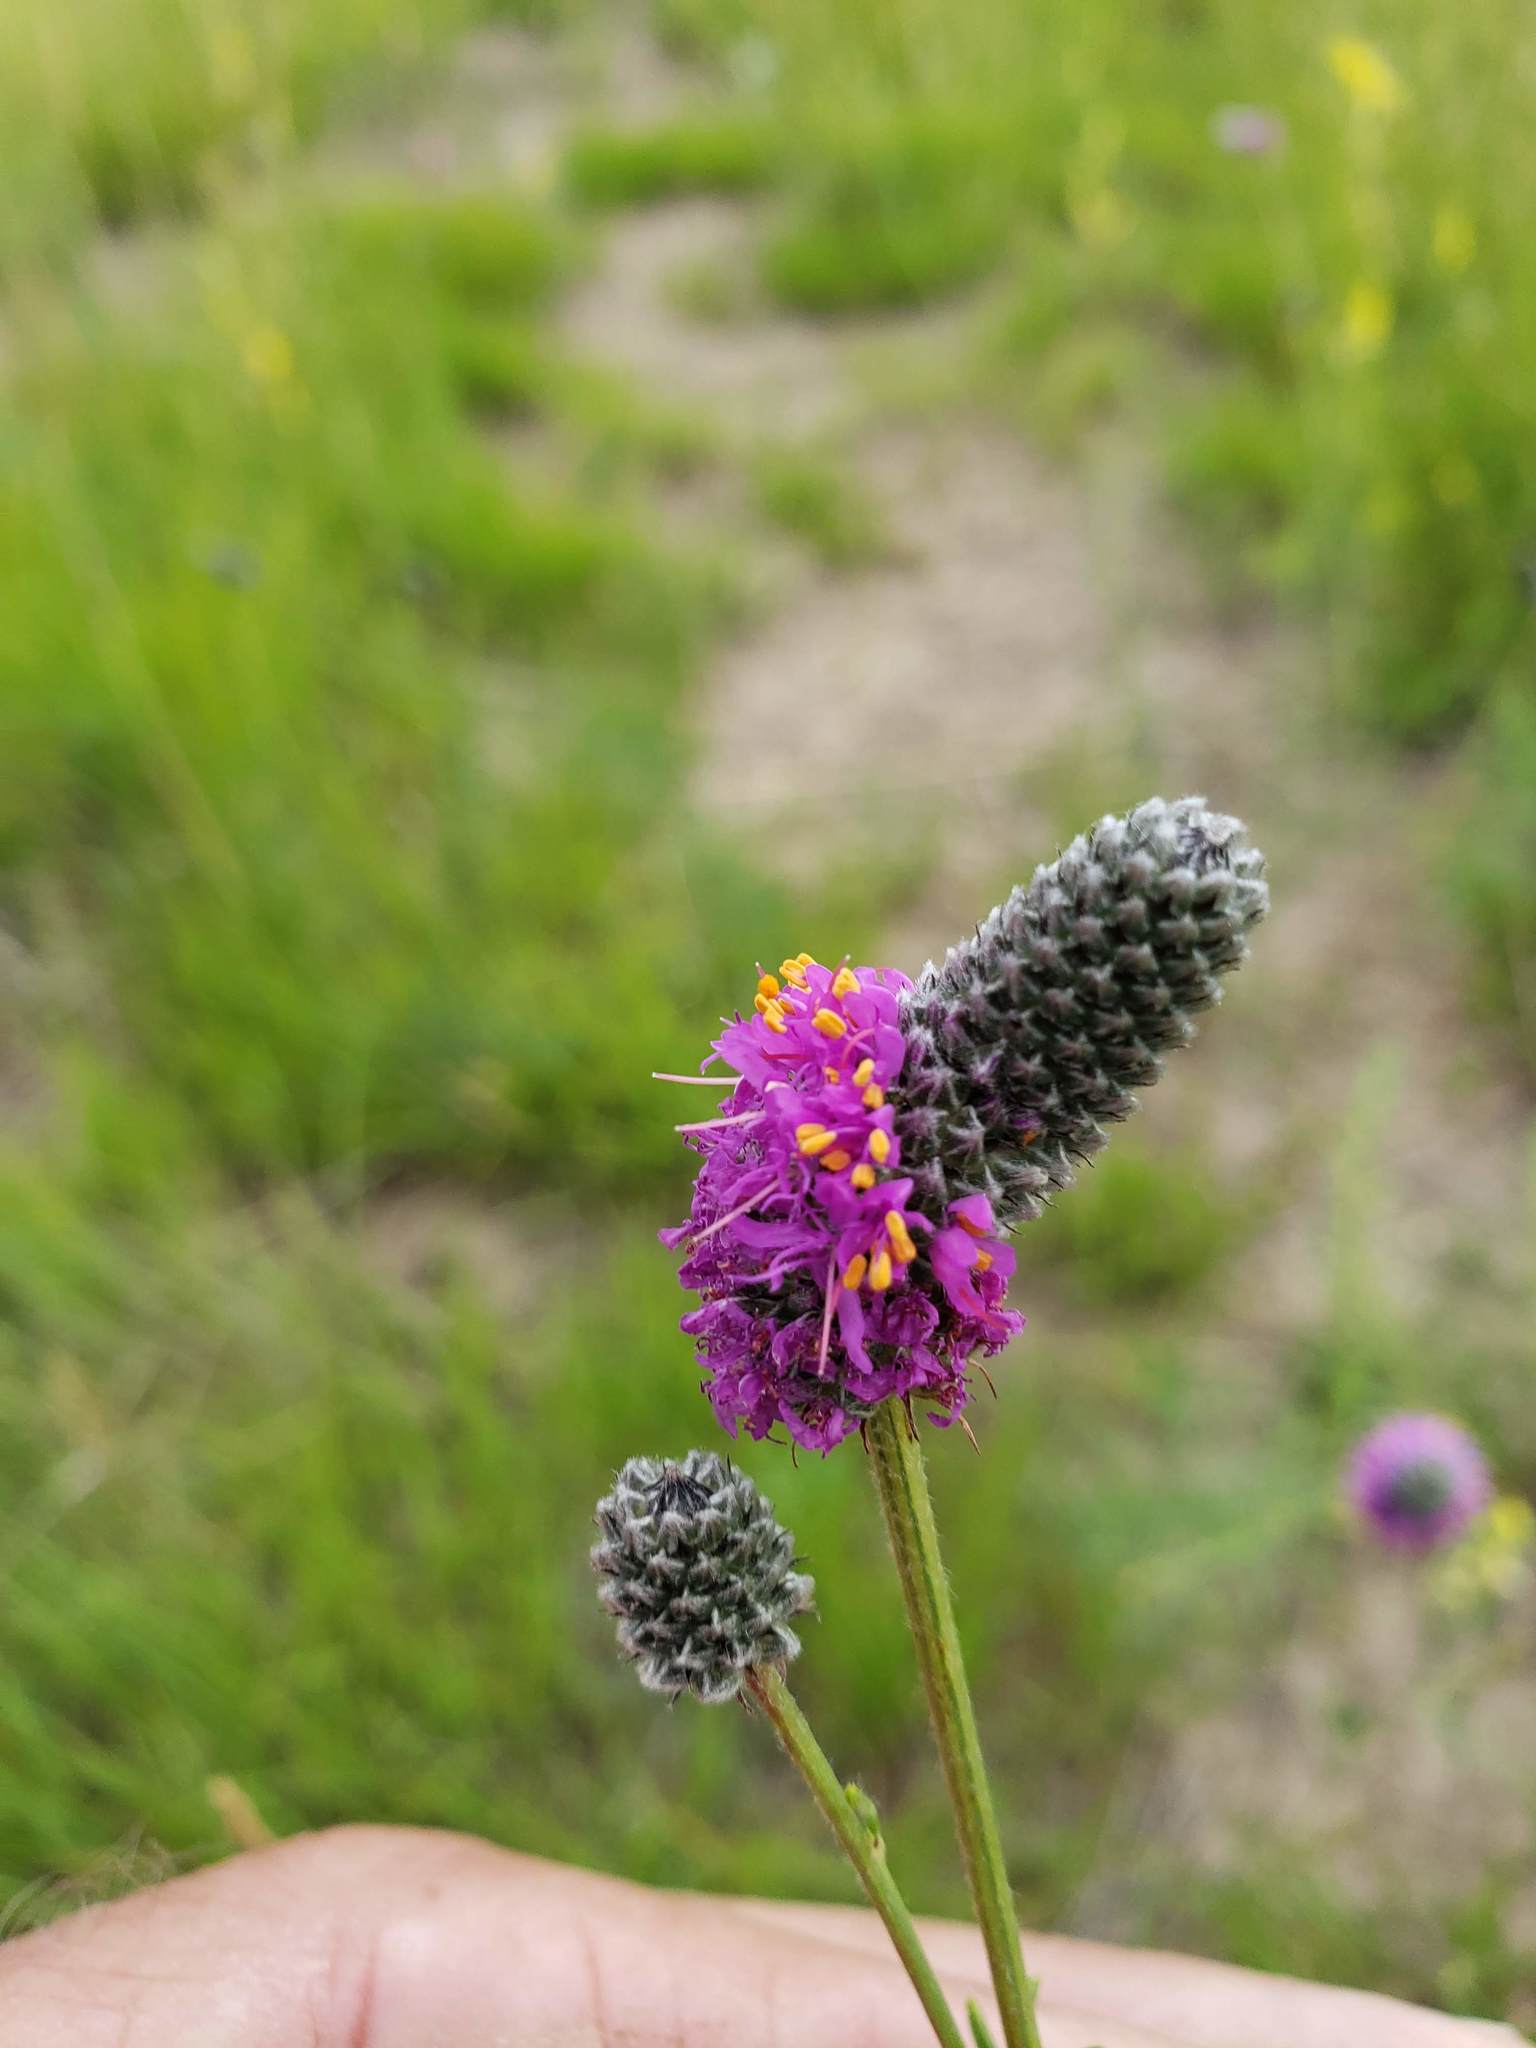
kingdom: Plantae
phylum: Tracheophyta
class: Magnoliopsida
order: Fabales
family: Fabaceae
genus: Dalea
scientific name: Dalea purpurea
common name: Purple prairie-clover
